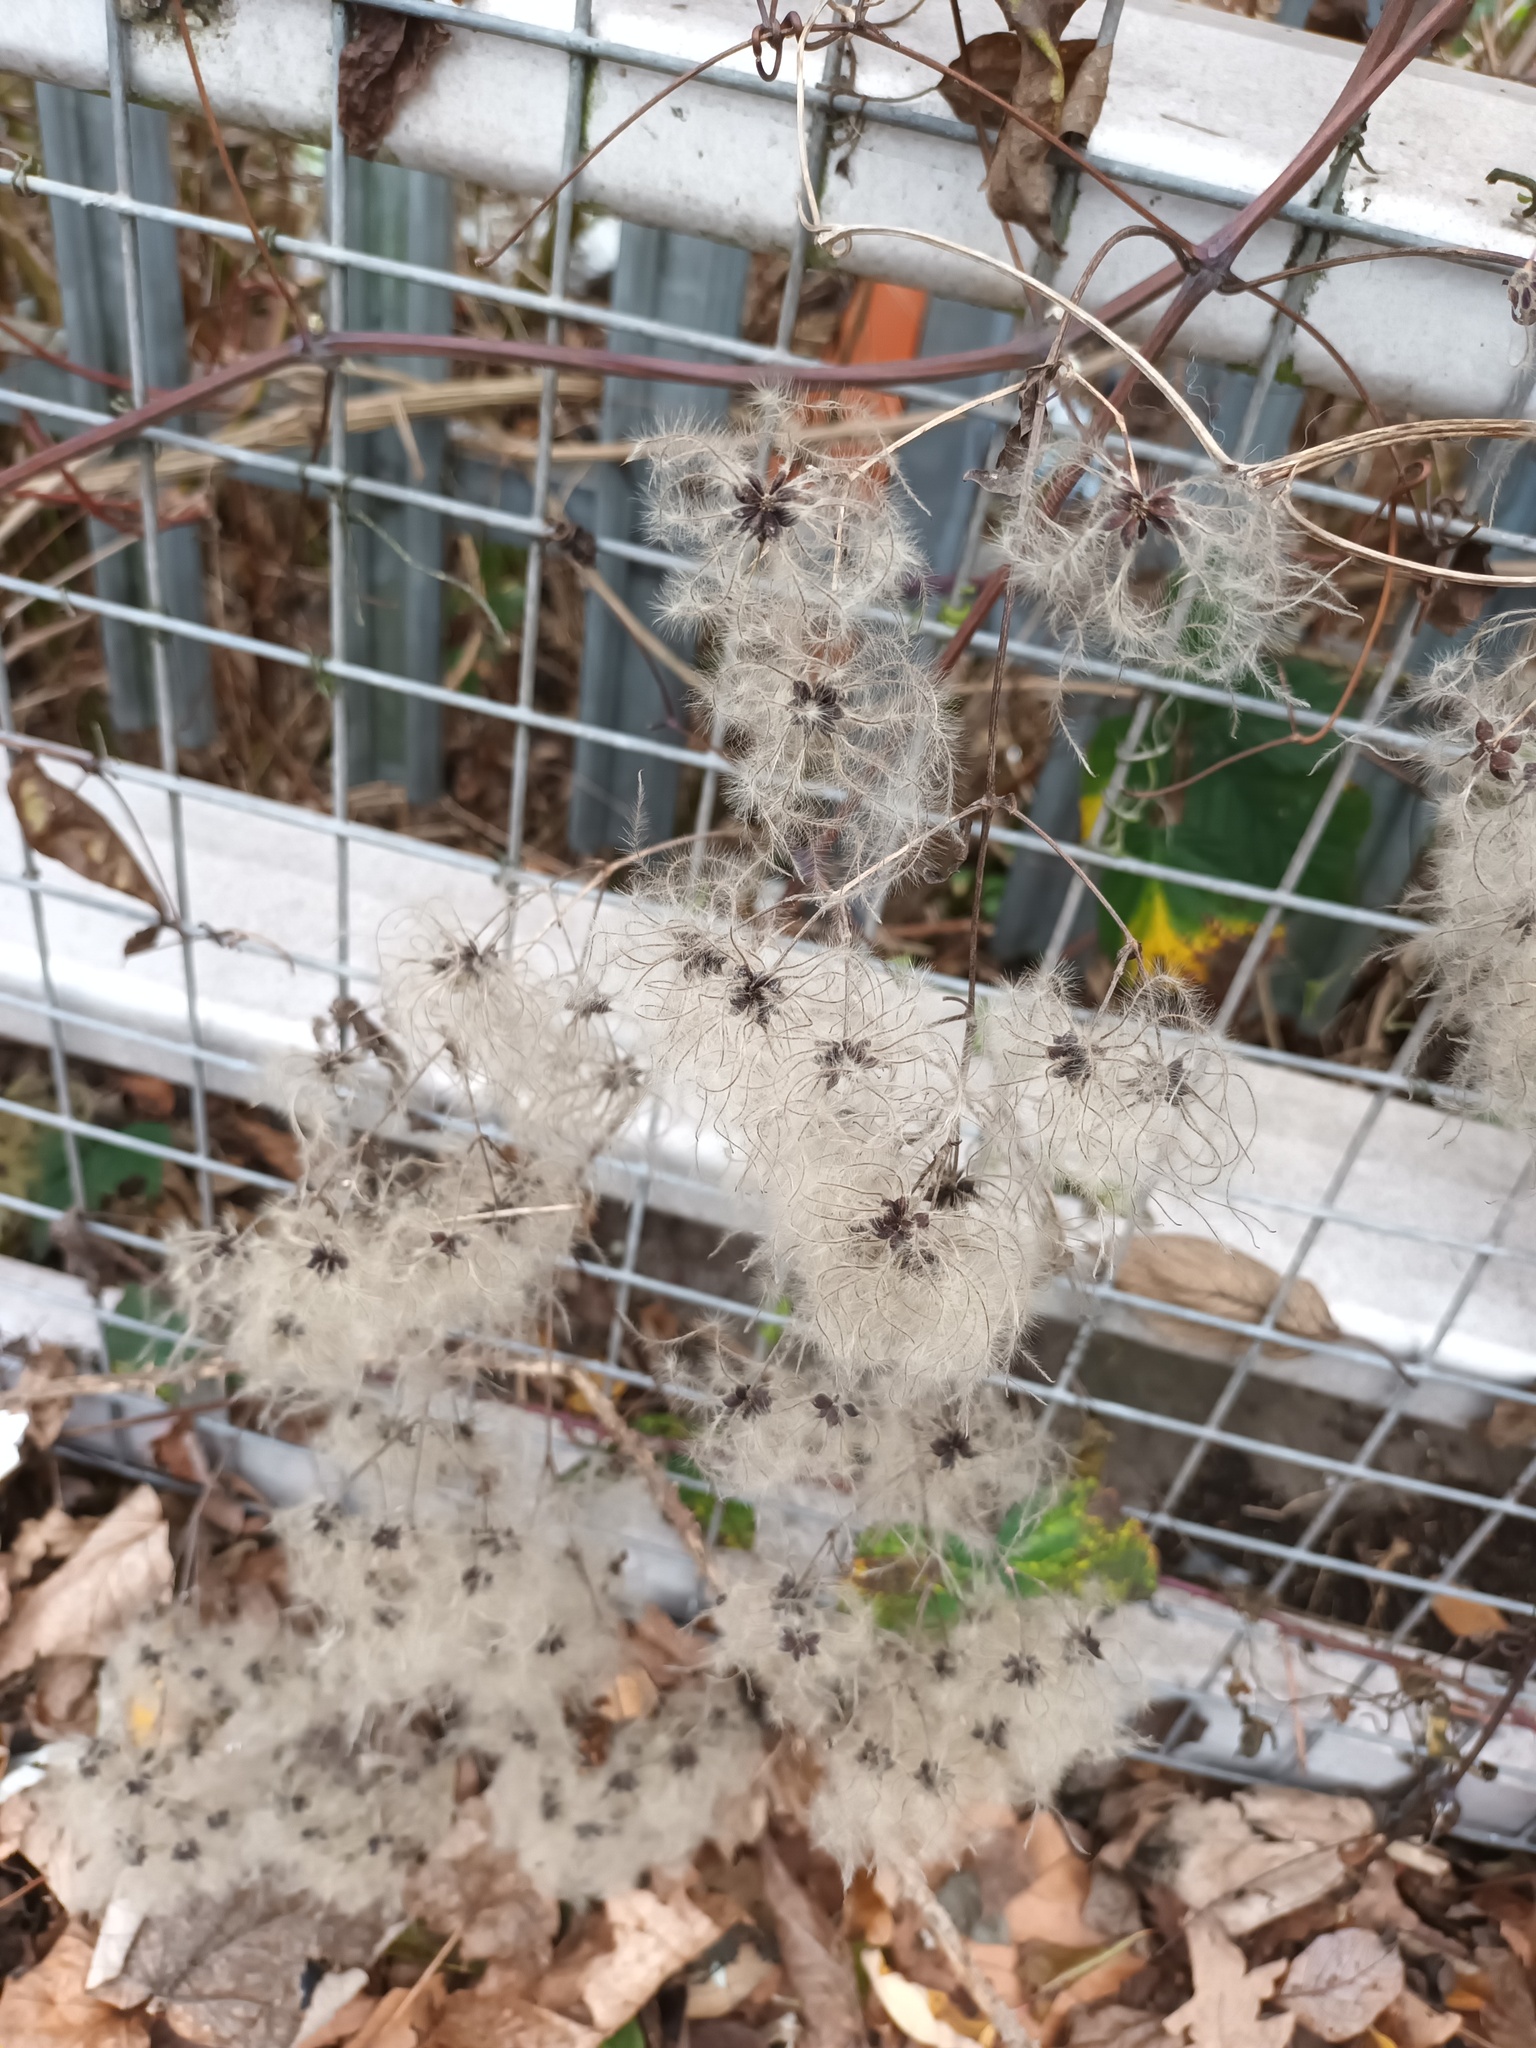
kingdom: Plantae
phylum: Tracheophyta
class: Magnoliopsida
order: Ranunculales
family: Ranunculaceae
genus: Clematis
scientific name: Clematis vitalba
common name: Evergreen clematis
